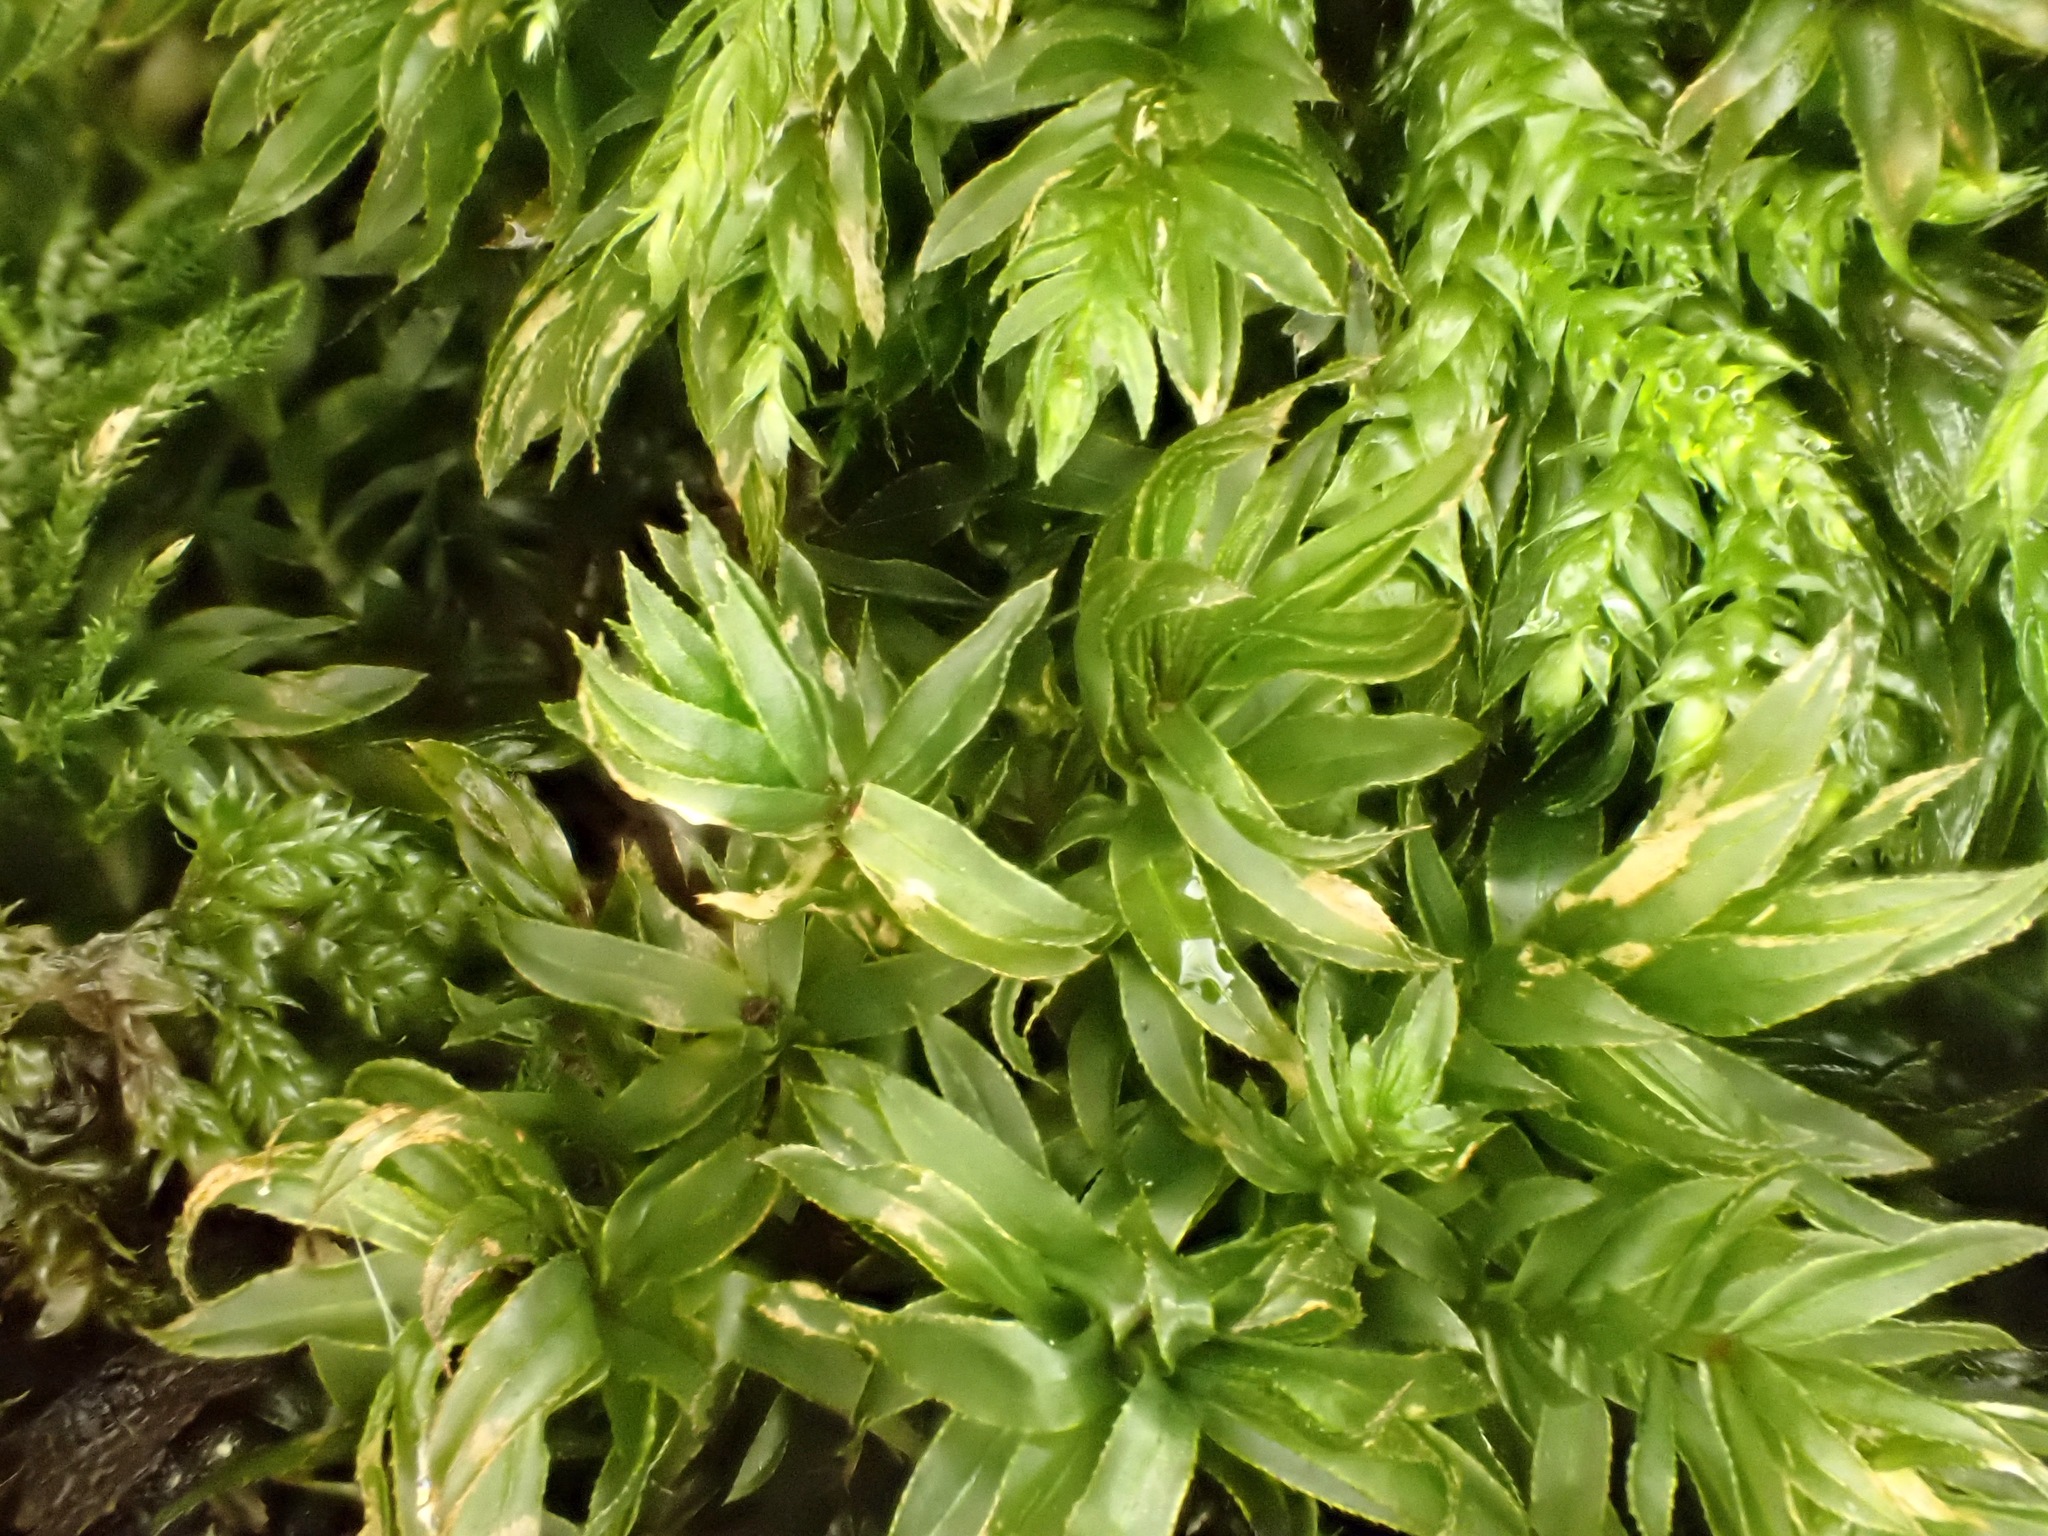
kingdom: Plantae
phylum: Bryophyta
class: Bryopsida
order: Bryales
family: Mniaceae
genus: Mnium
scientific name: Mnium hornum
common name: Swan's-neck leafy moss
